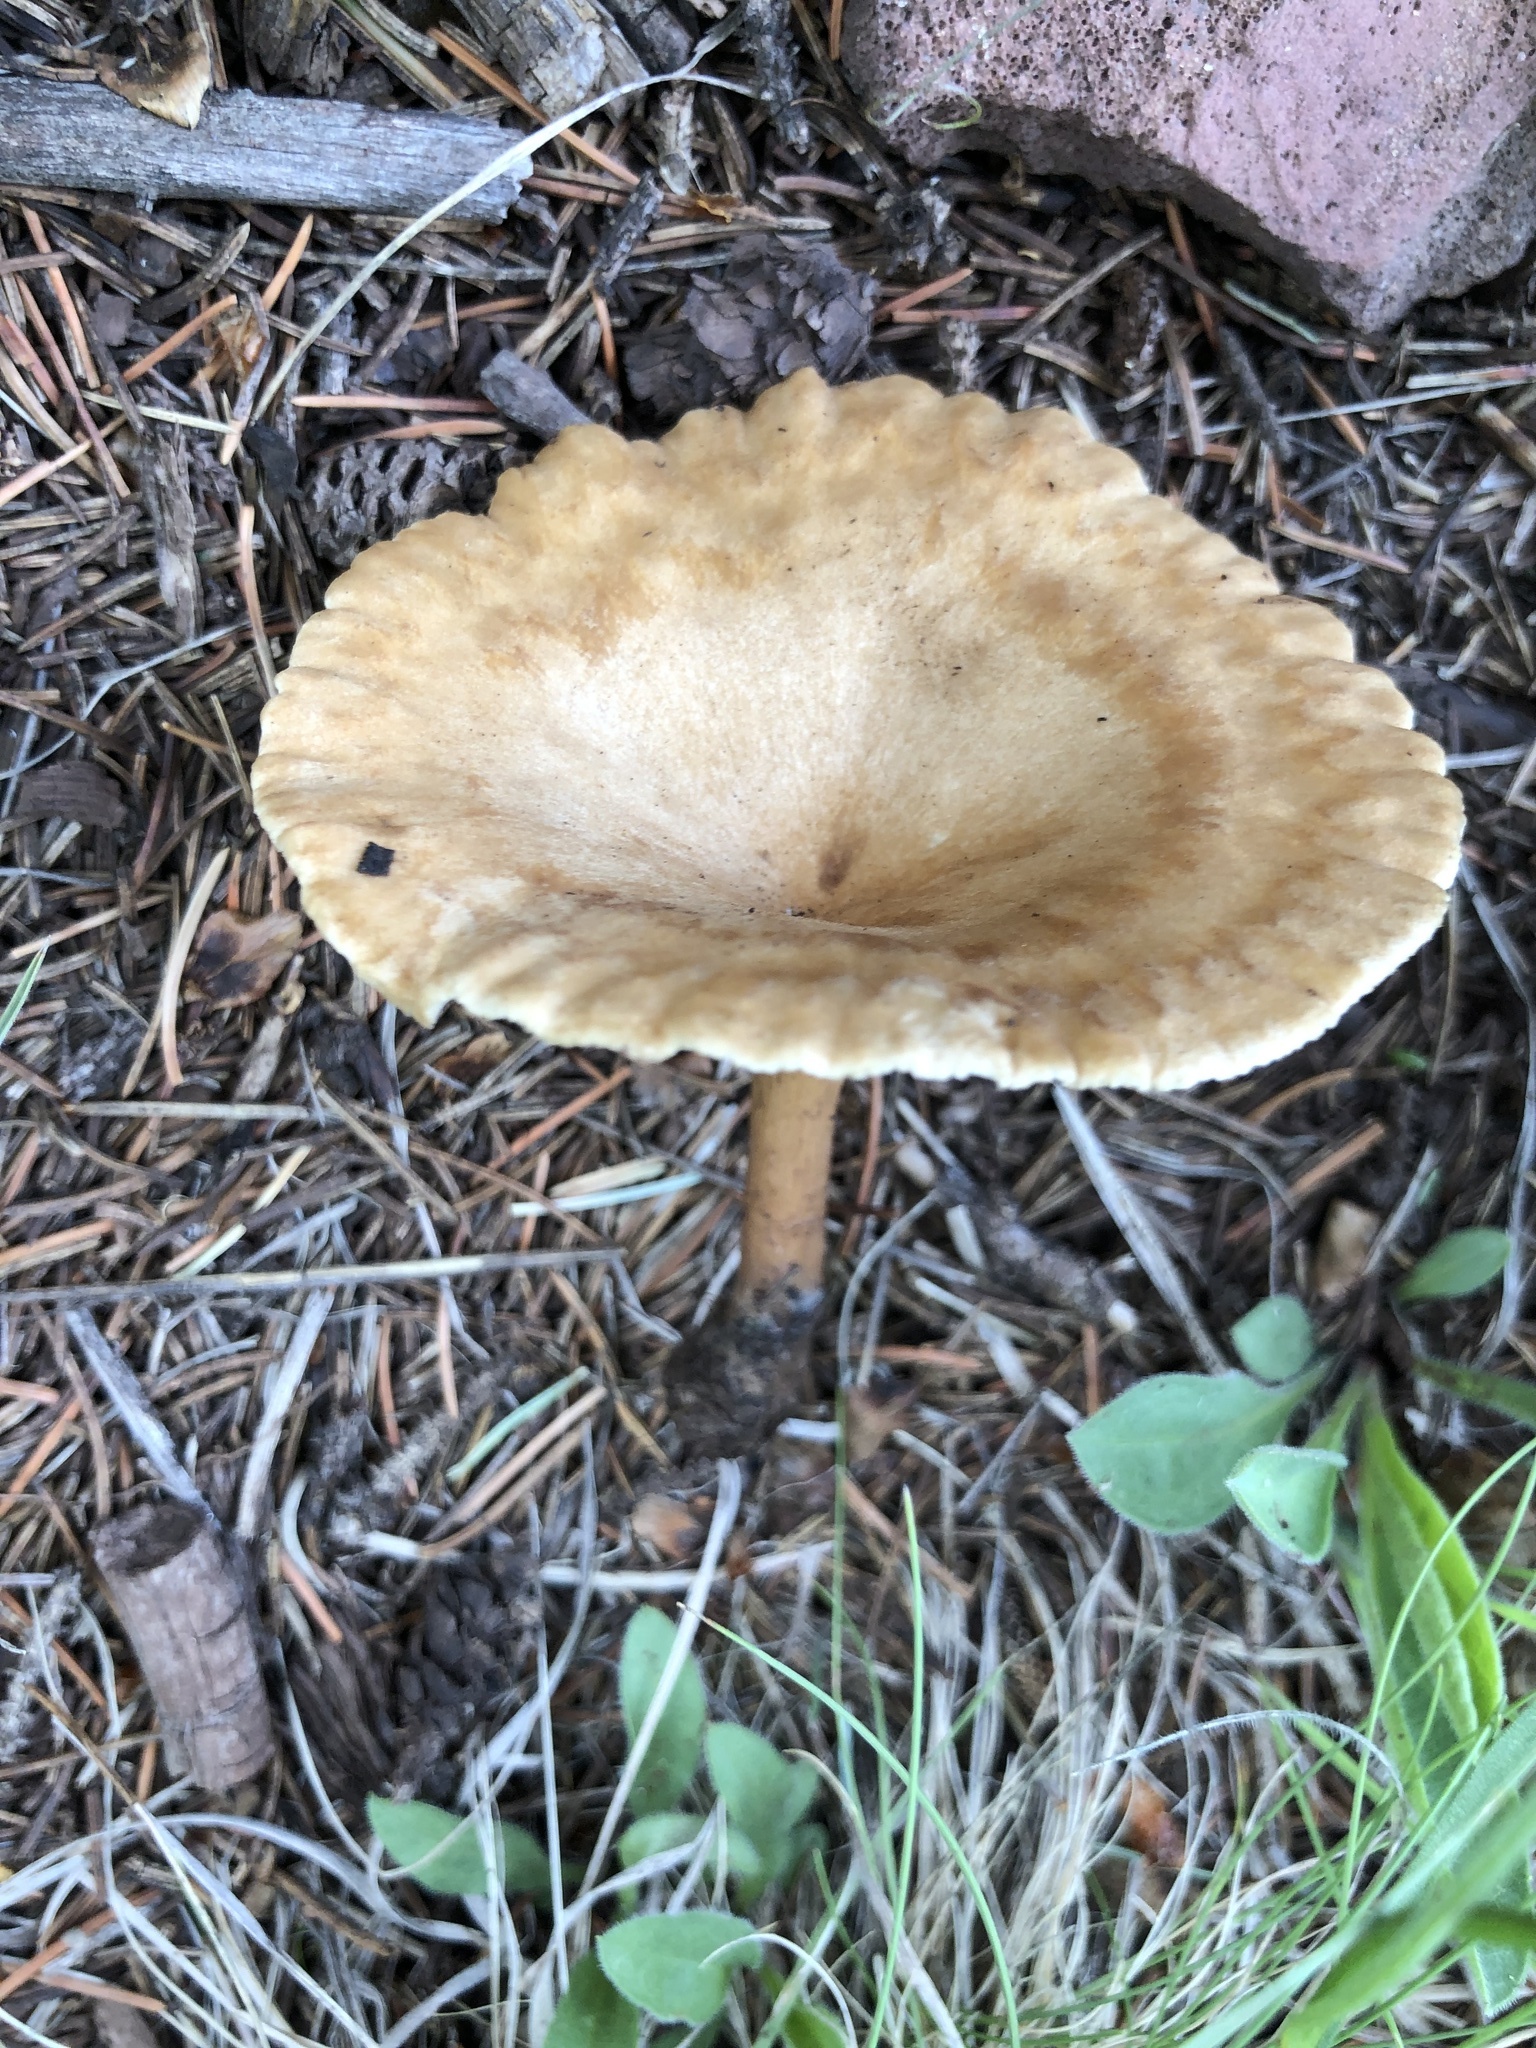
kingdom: Fungi
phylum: Basidiomycota
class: Agaricomycetes
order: Agaricales
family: Tricholomataceae
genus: Infundibulicybe
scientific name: Infundibulicybe squamulosa
